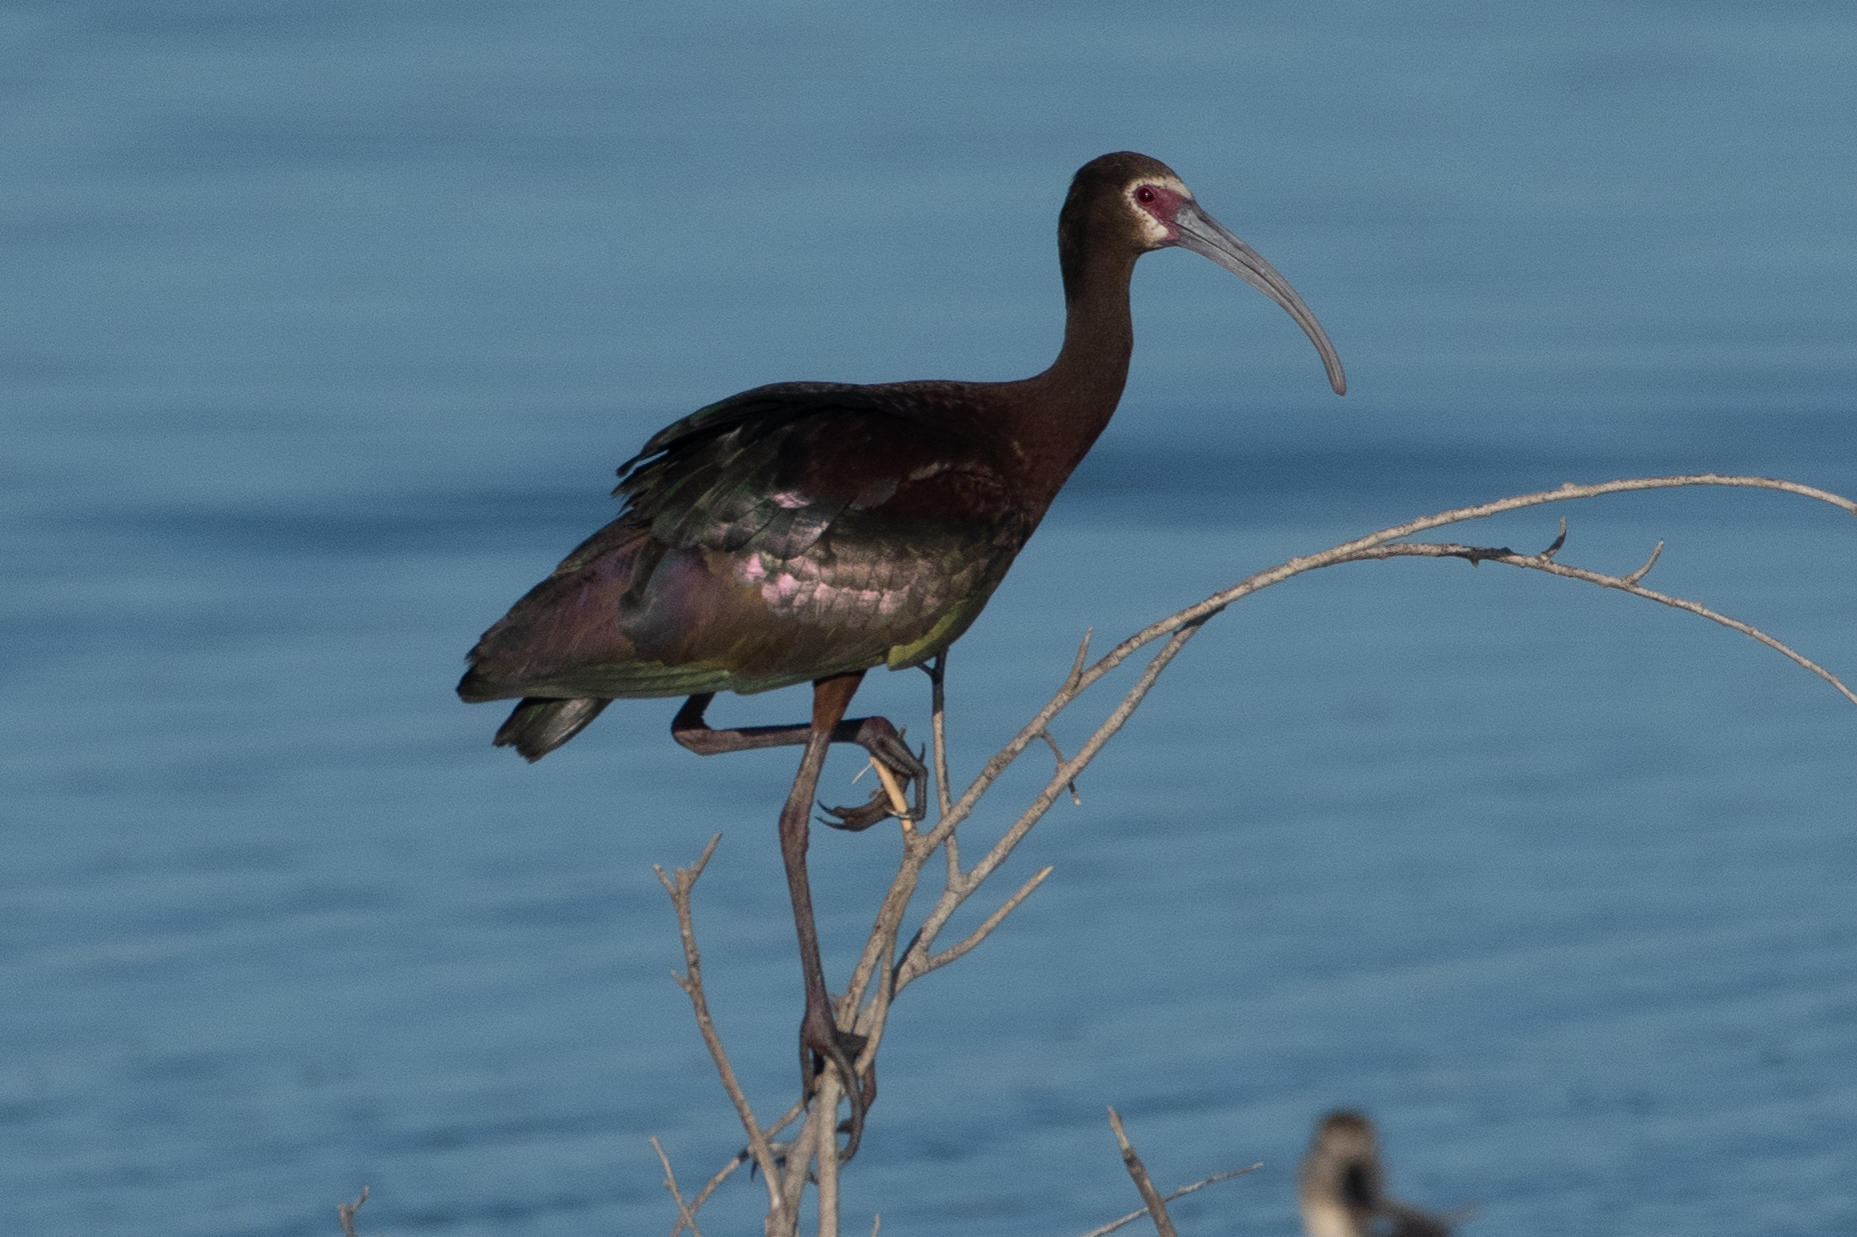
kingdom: Animalia
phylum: Chordata
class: Aves
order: Pelecaniformes
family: Threskiornithidae
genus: Plegadis
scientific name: Plegadis chihi
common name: White-faced ibis
